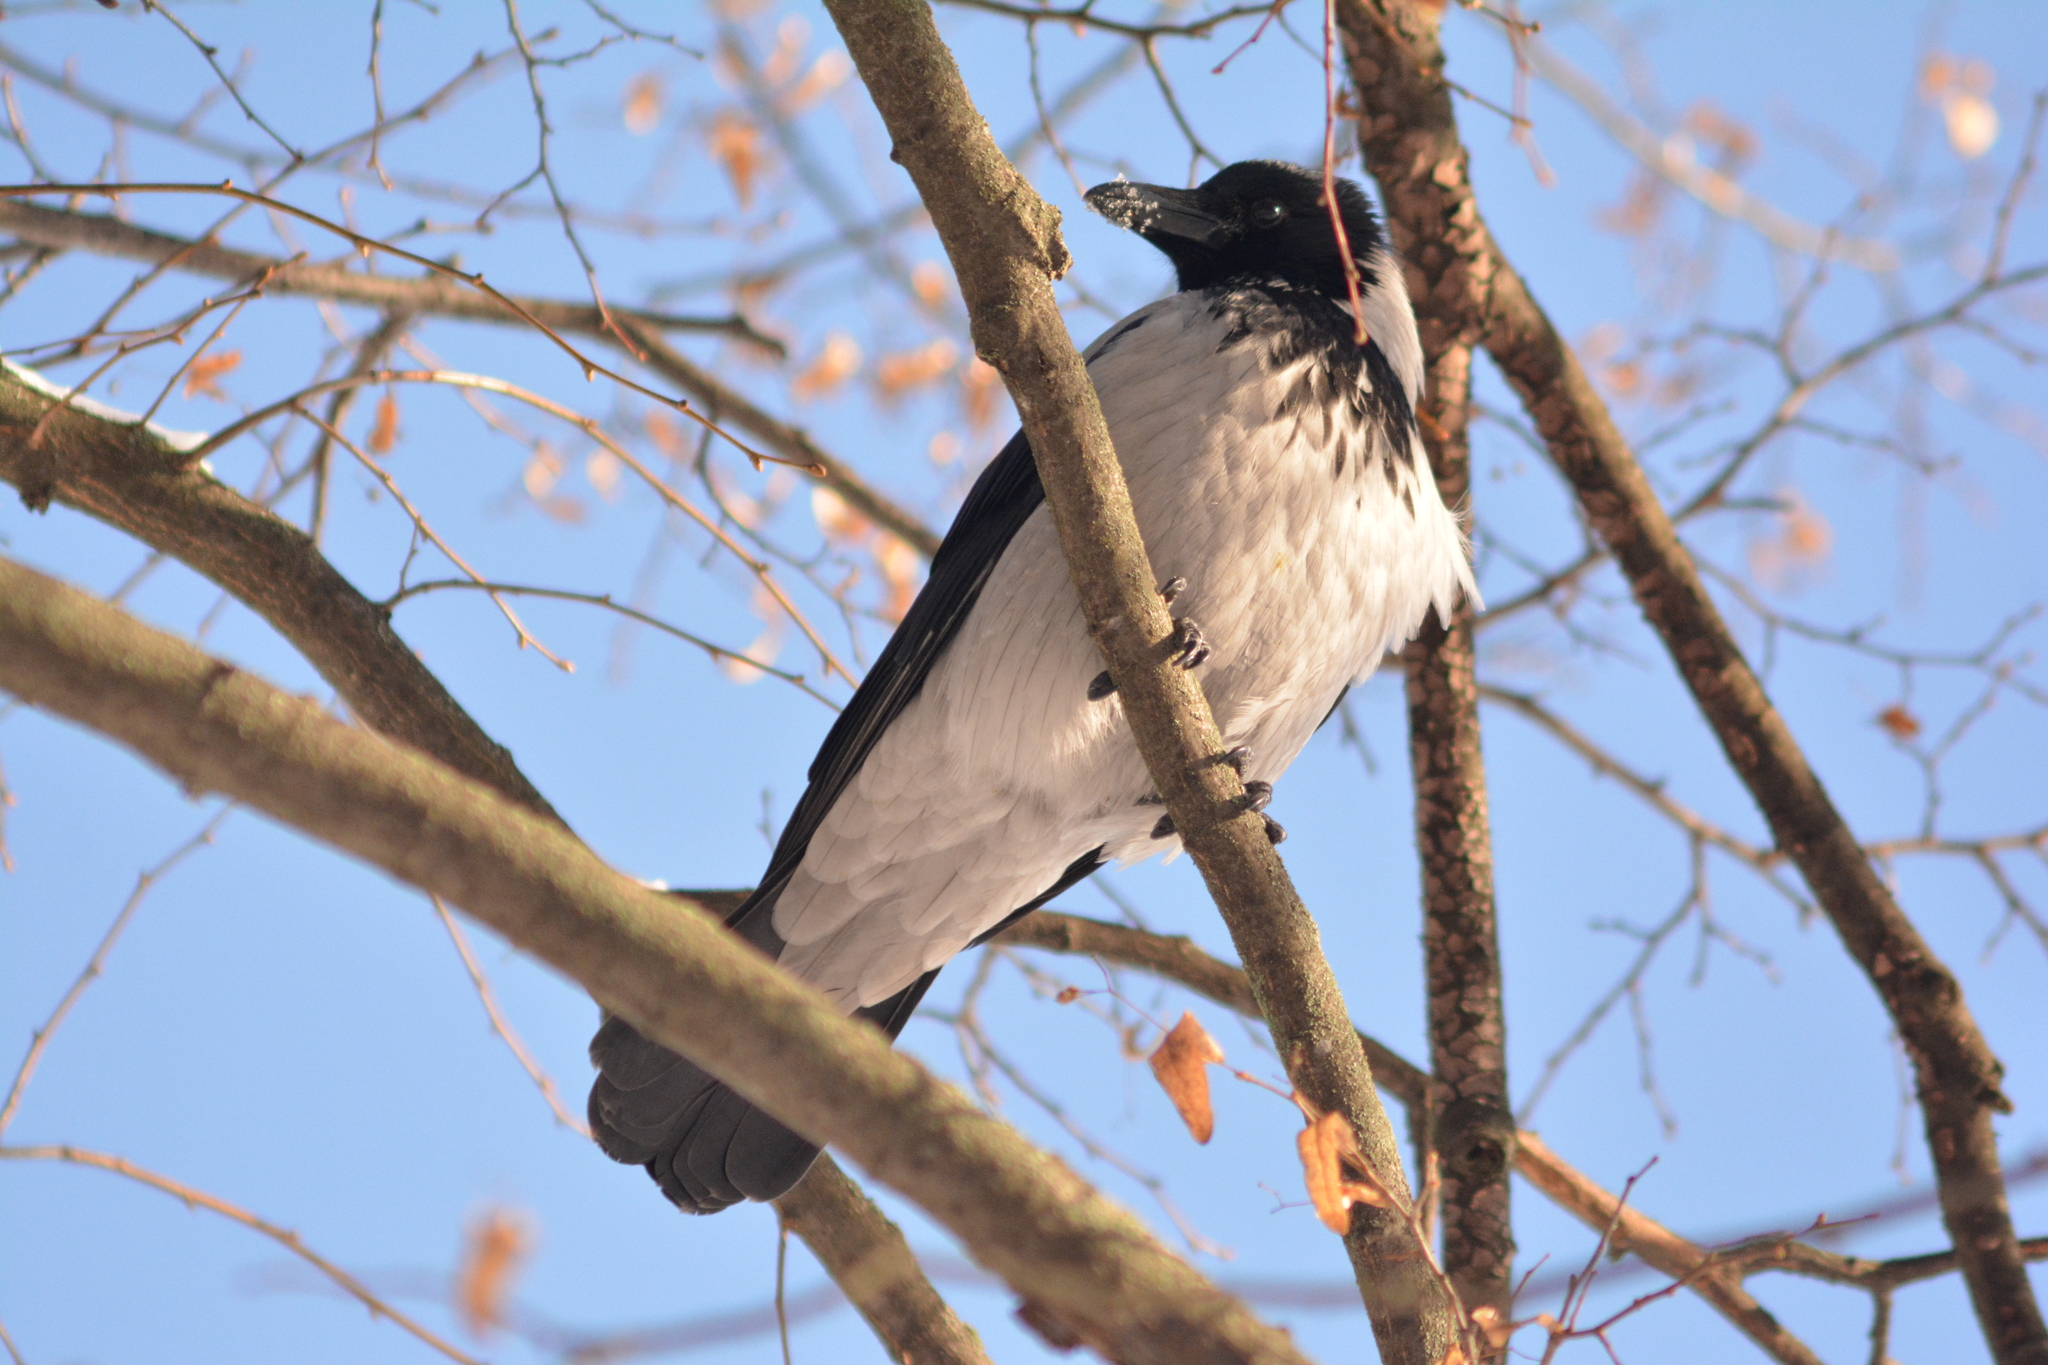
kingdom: Animalia
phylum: Chordata
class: Aves
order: Passeriformes
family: Corvidae
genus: Corvus
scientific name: Corvus cornix
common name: Hooded crow
